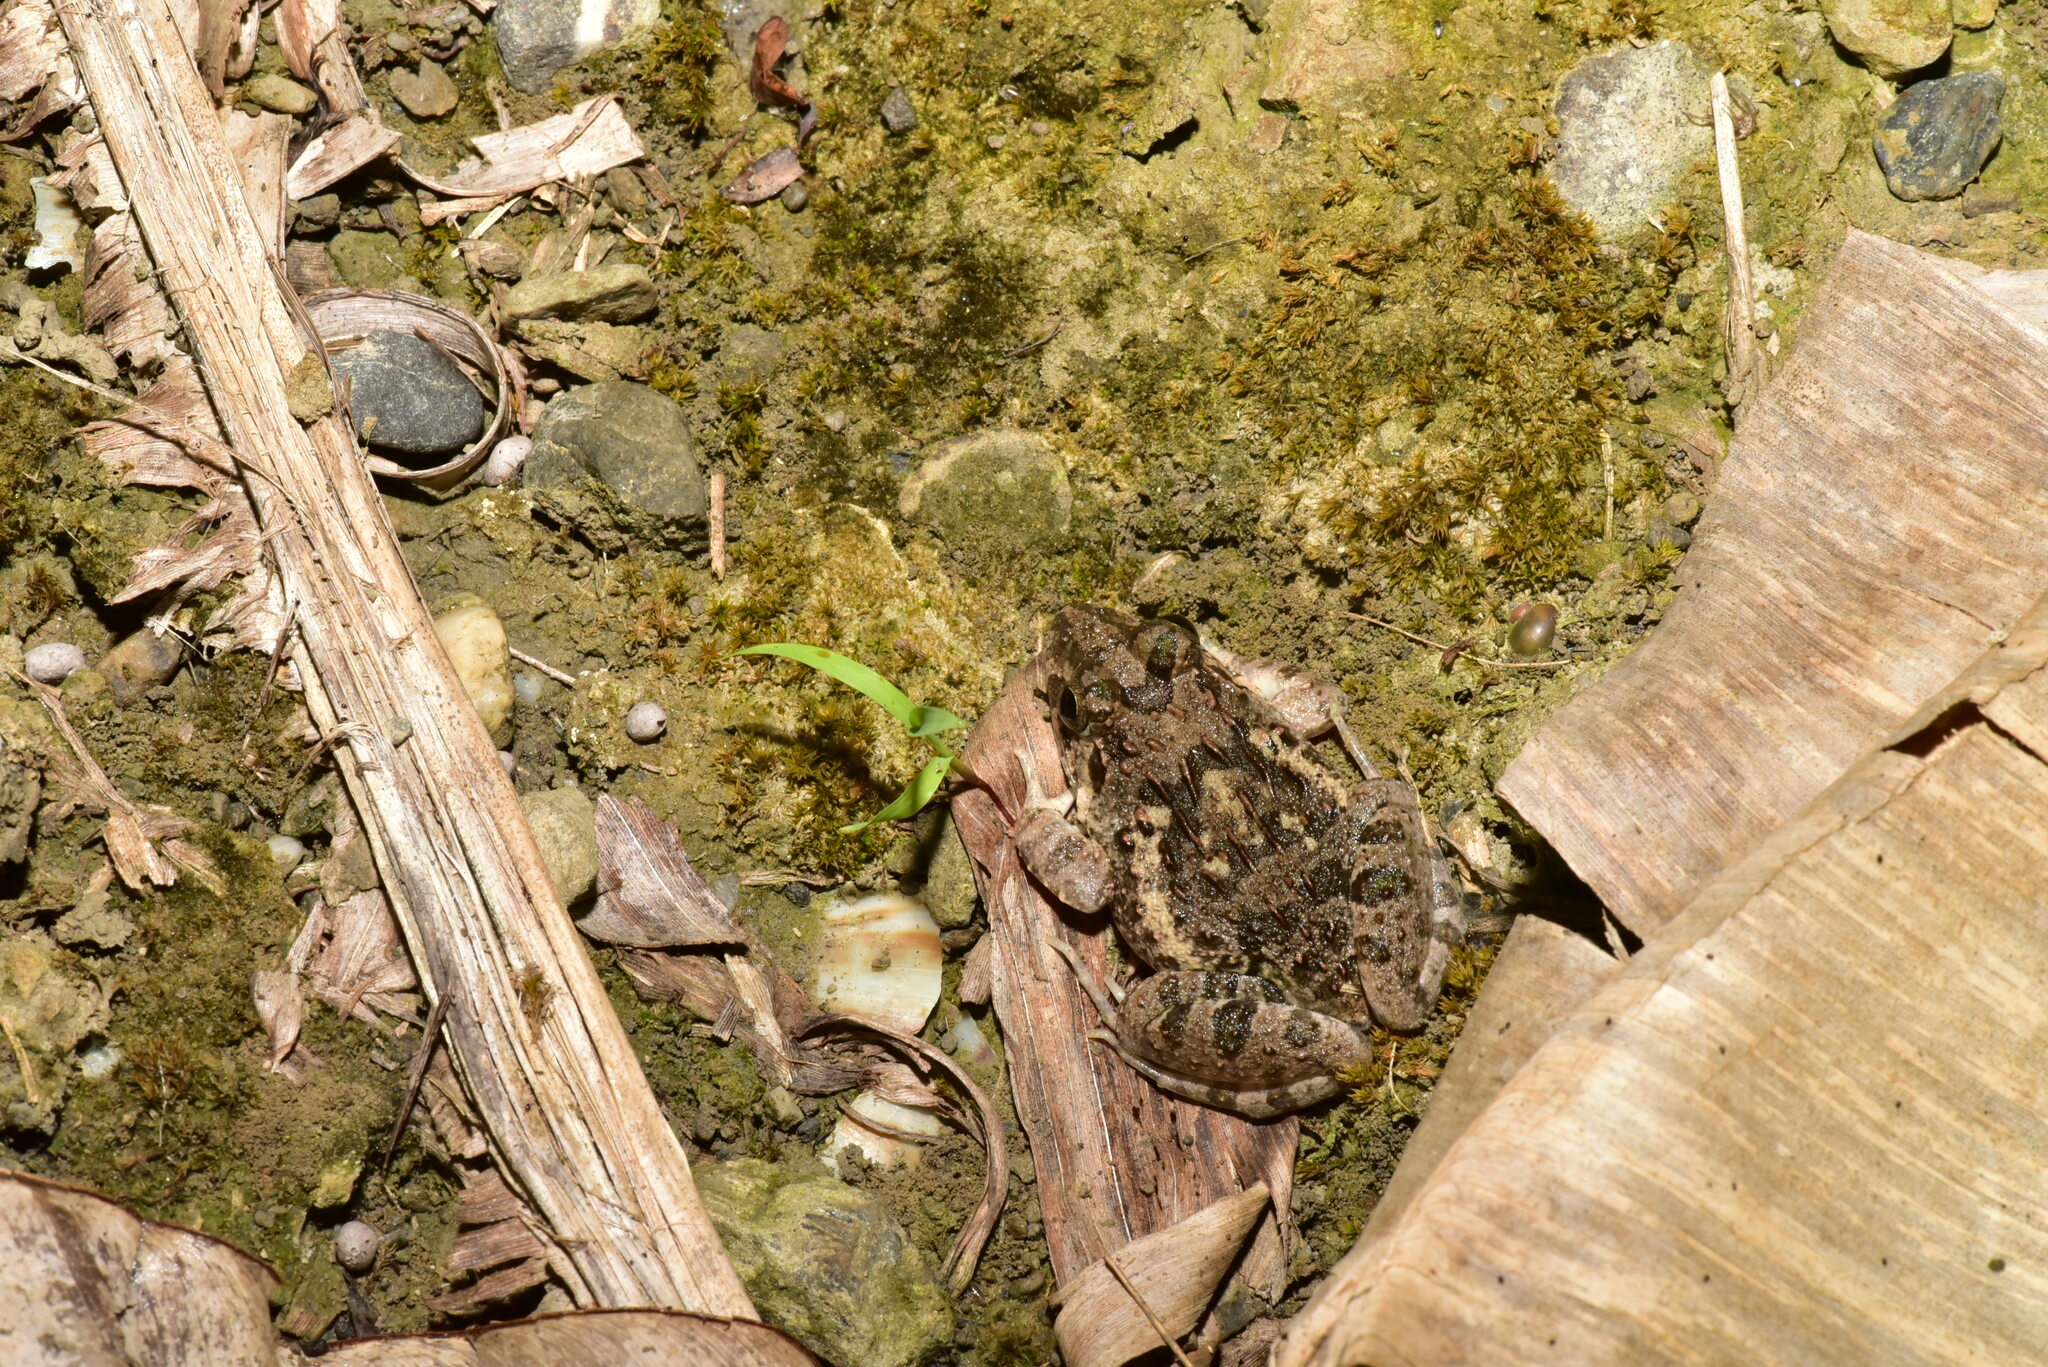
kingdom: Animalia
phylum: Chordata
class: Amphibia
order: Anura
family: Dicroglossidae
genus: Fejervarya
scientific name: Fejervarya limnocharis
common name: Asian grass frog/common pond frog/field frog/grass frog/indian rice frog
